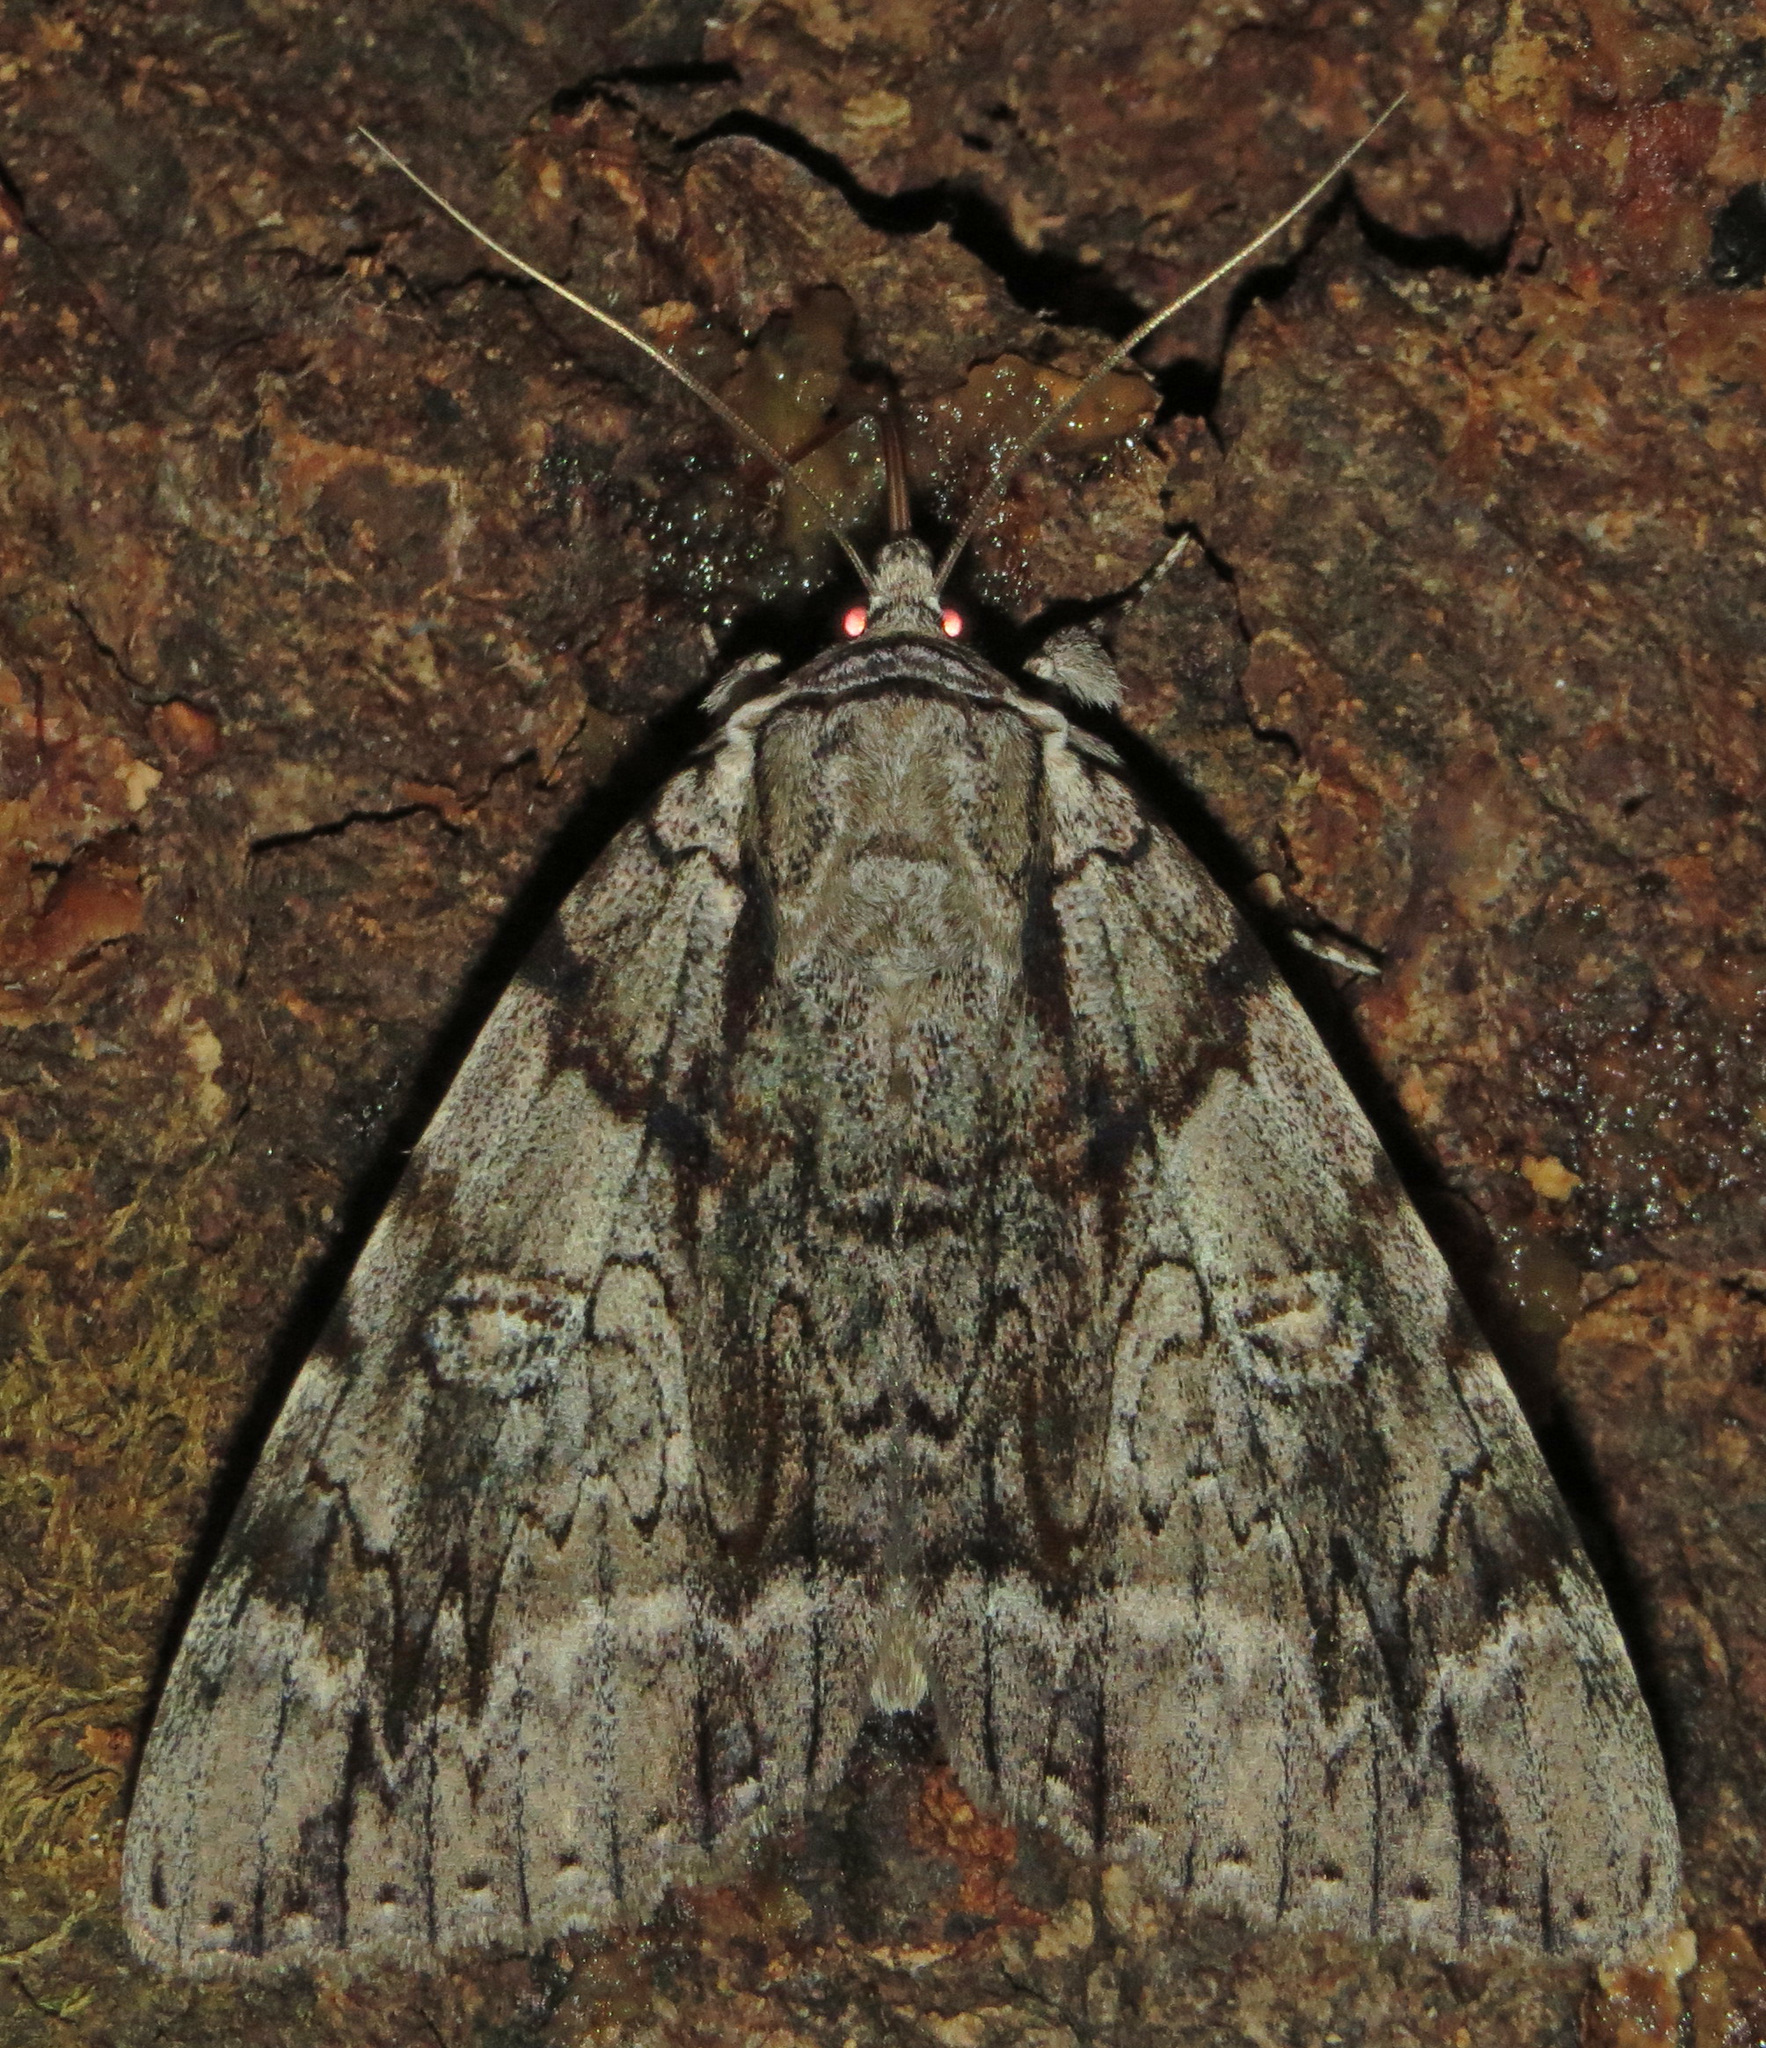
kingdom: Animalia
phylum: Arthropoda
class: Insecta
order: Lepidoptera
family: Erebidae
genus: Catocala
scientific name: Catocala vidua
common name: The widow
